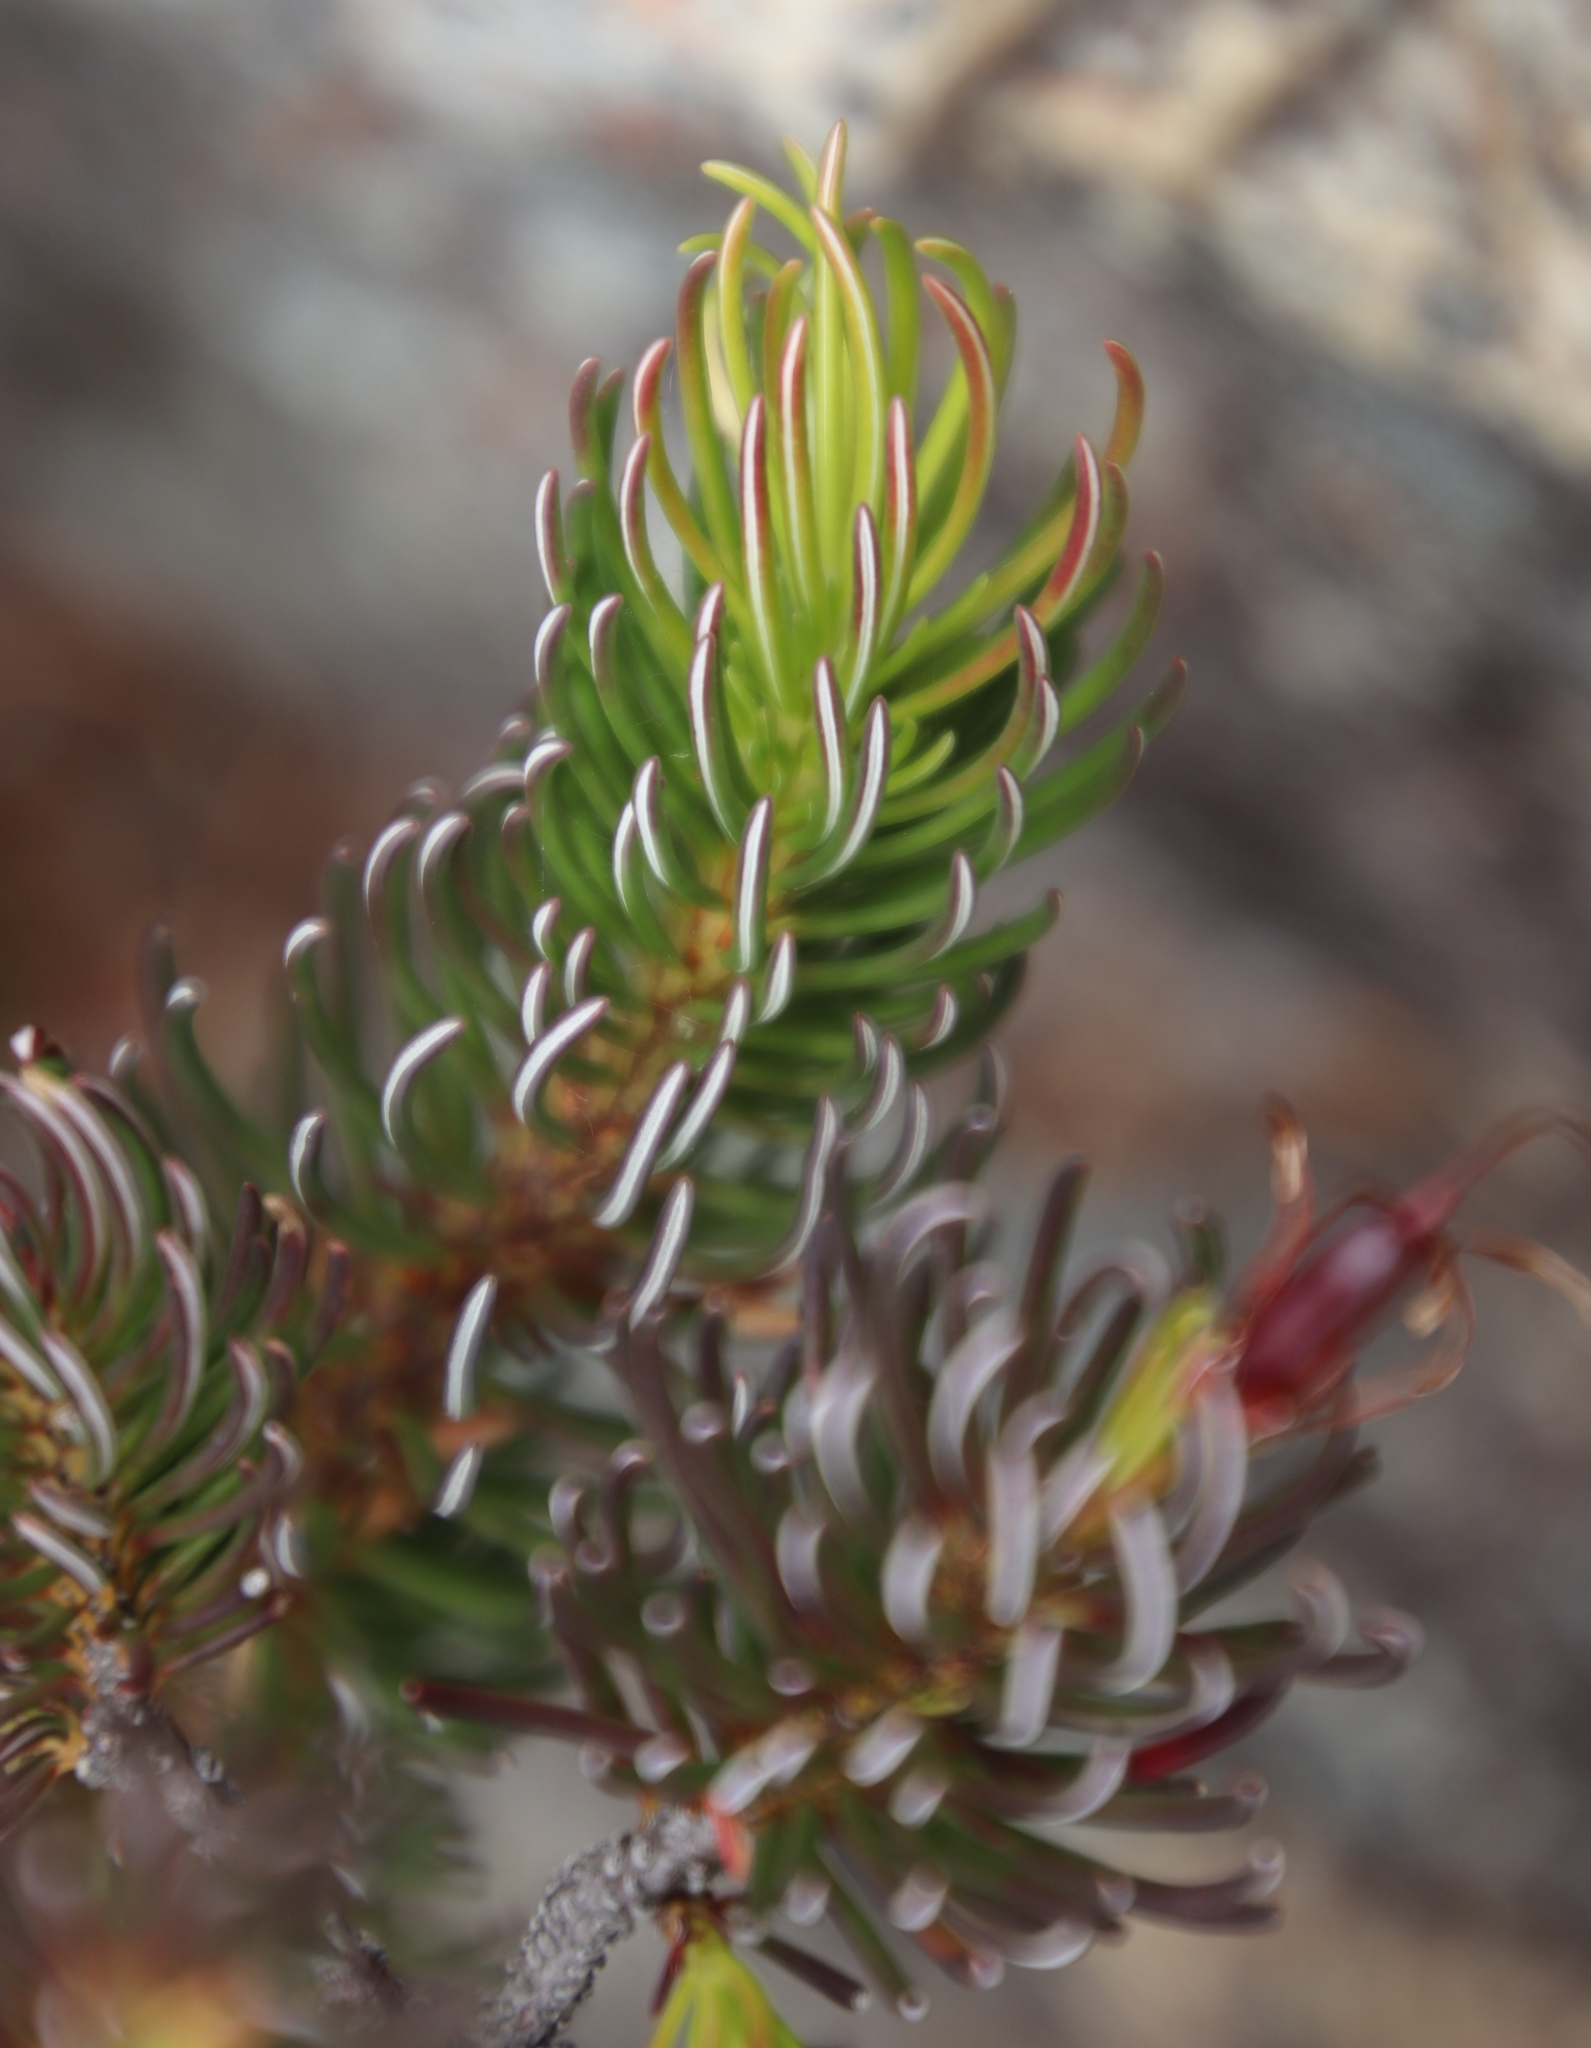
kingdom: Plantae
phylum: Tracheophyta
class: Magnoliopsida
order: Ericales
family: Ericaceae
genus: Erica
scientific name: Erica plukenetii
